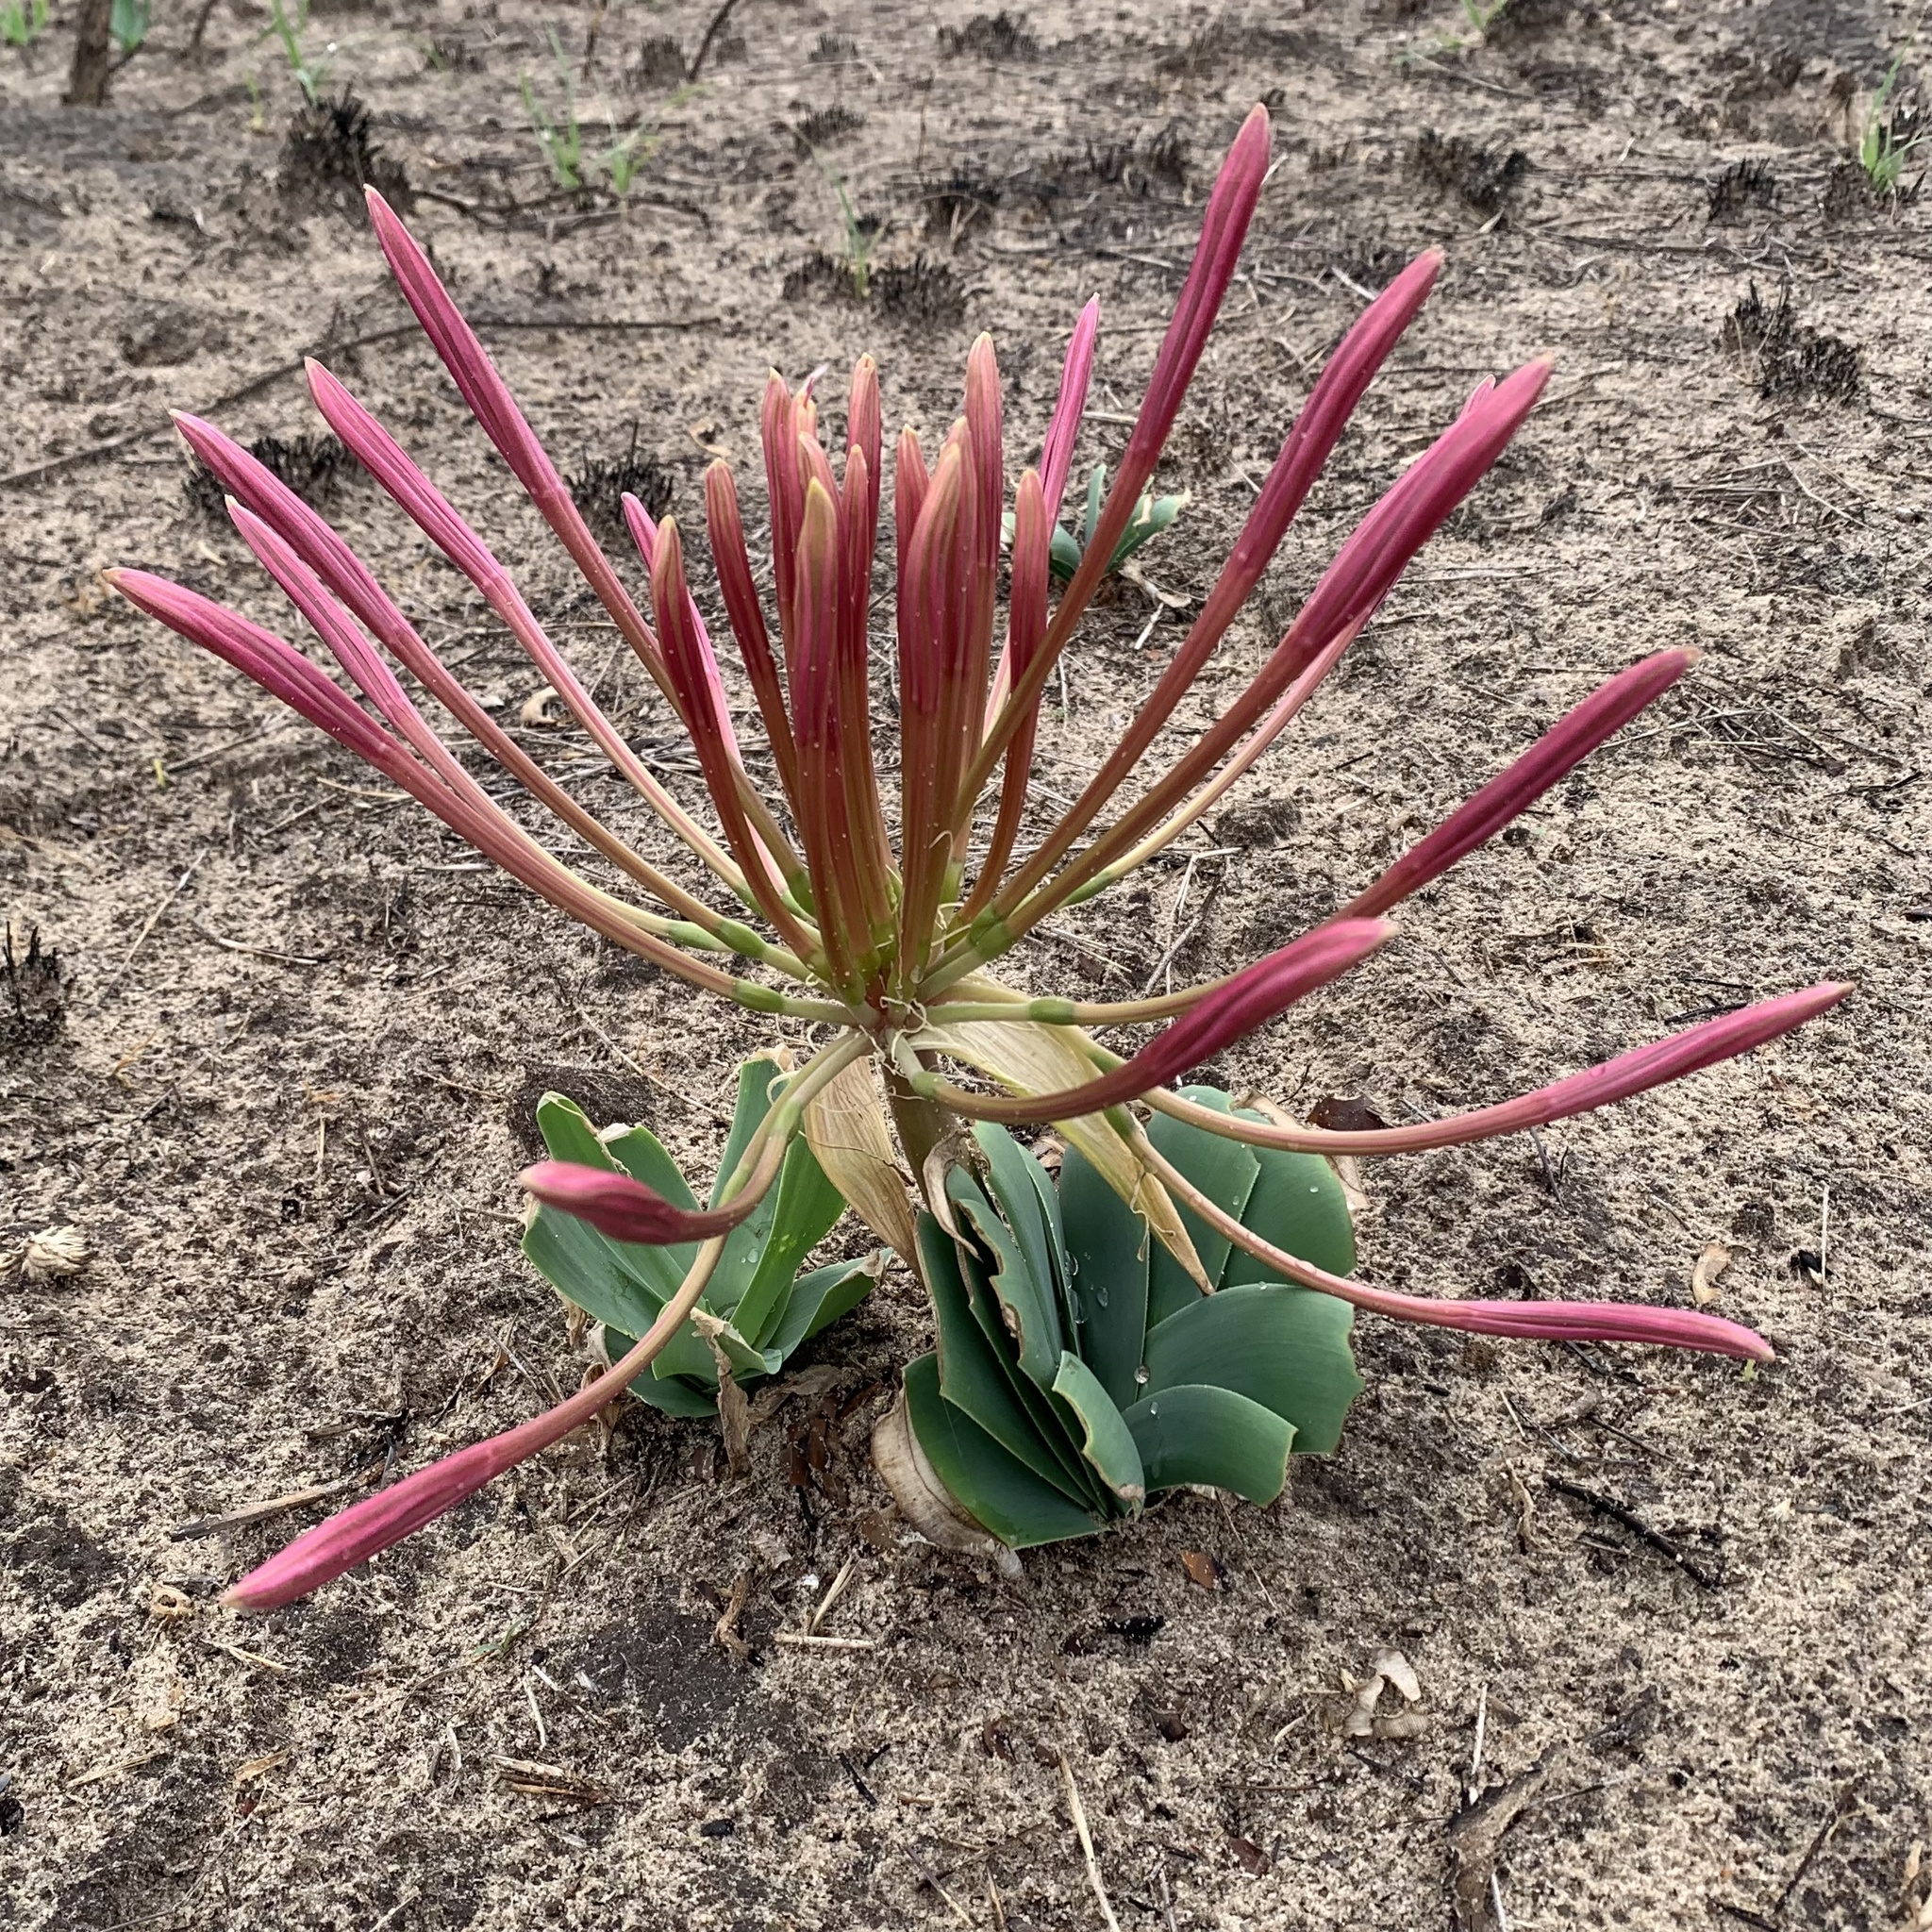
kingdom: Plantae
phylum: Tracheophyta
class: Liliopsida
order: Asparagales
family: Amaryllidaceae
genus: Ammocharis
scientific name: Ammocharis tinneana
